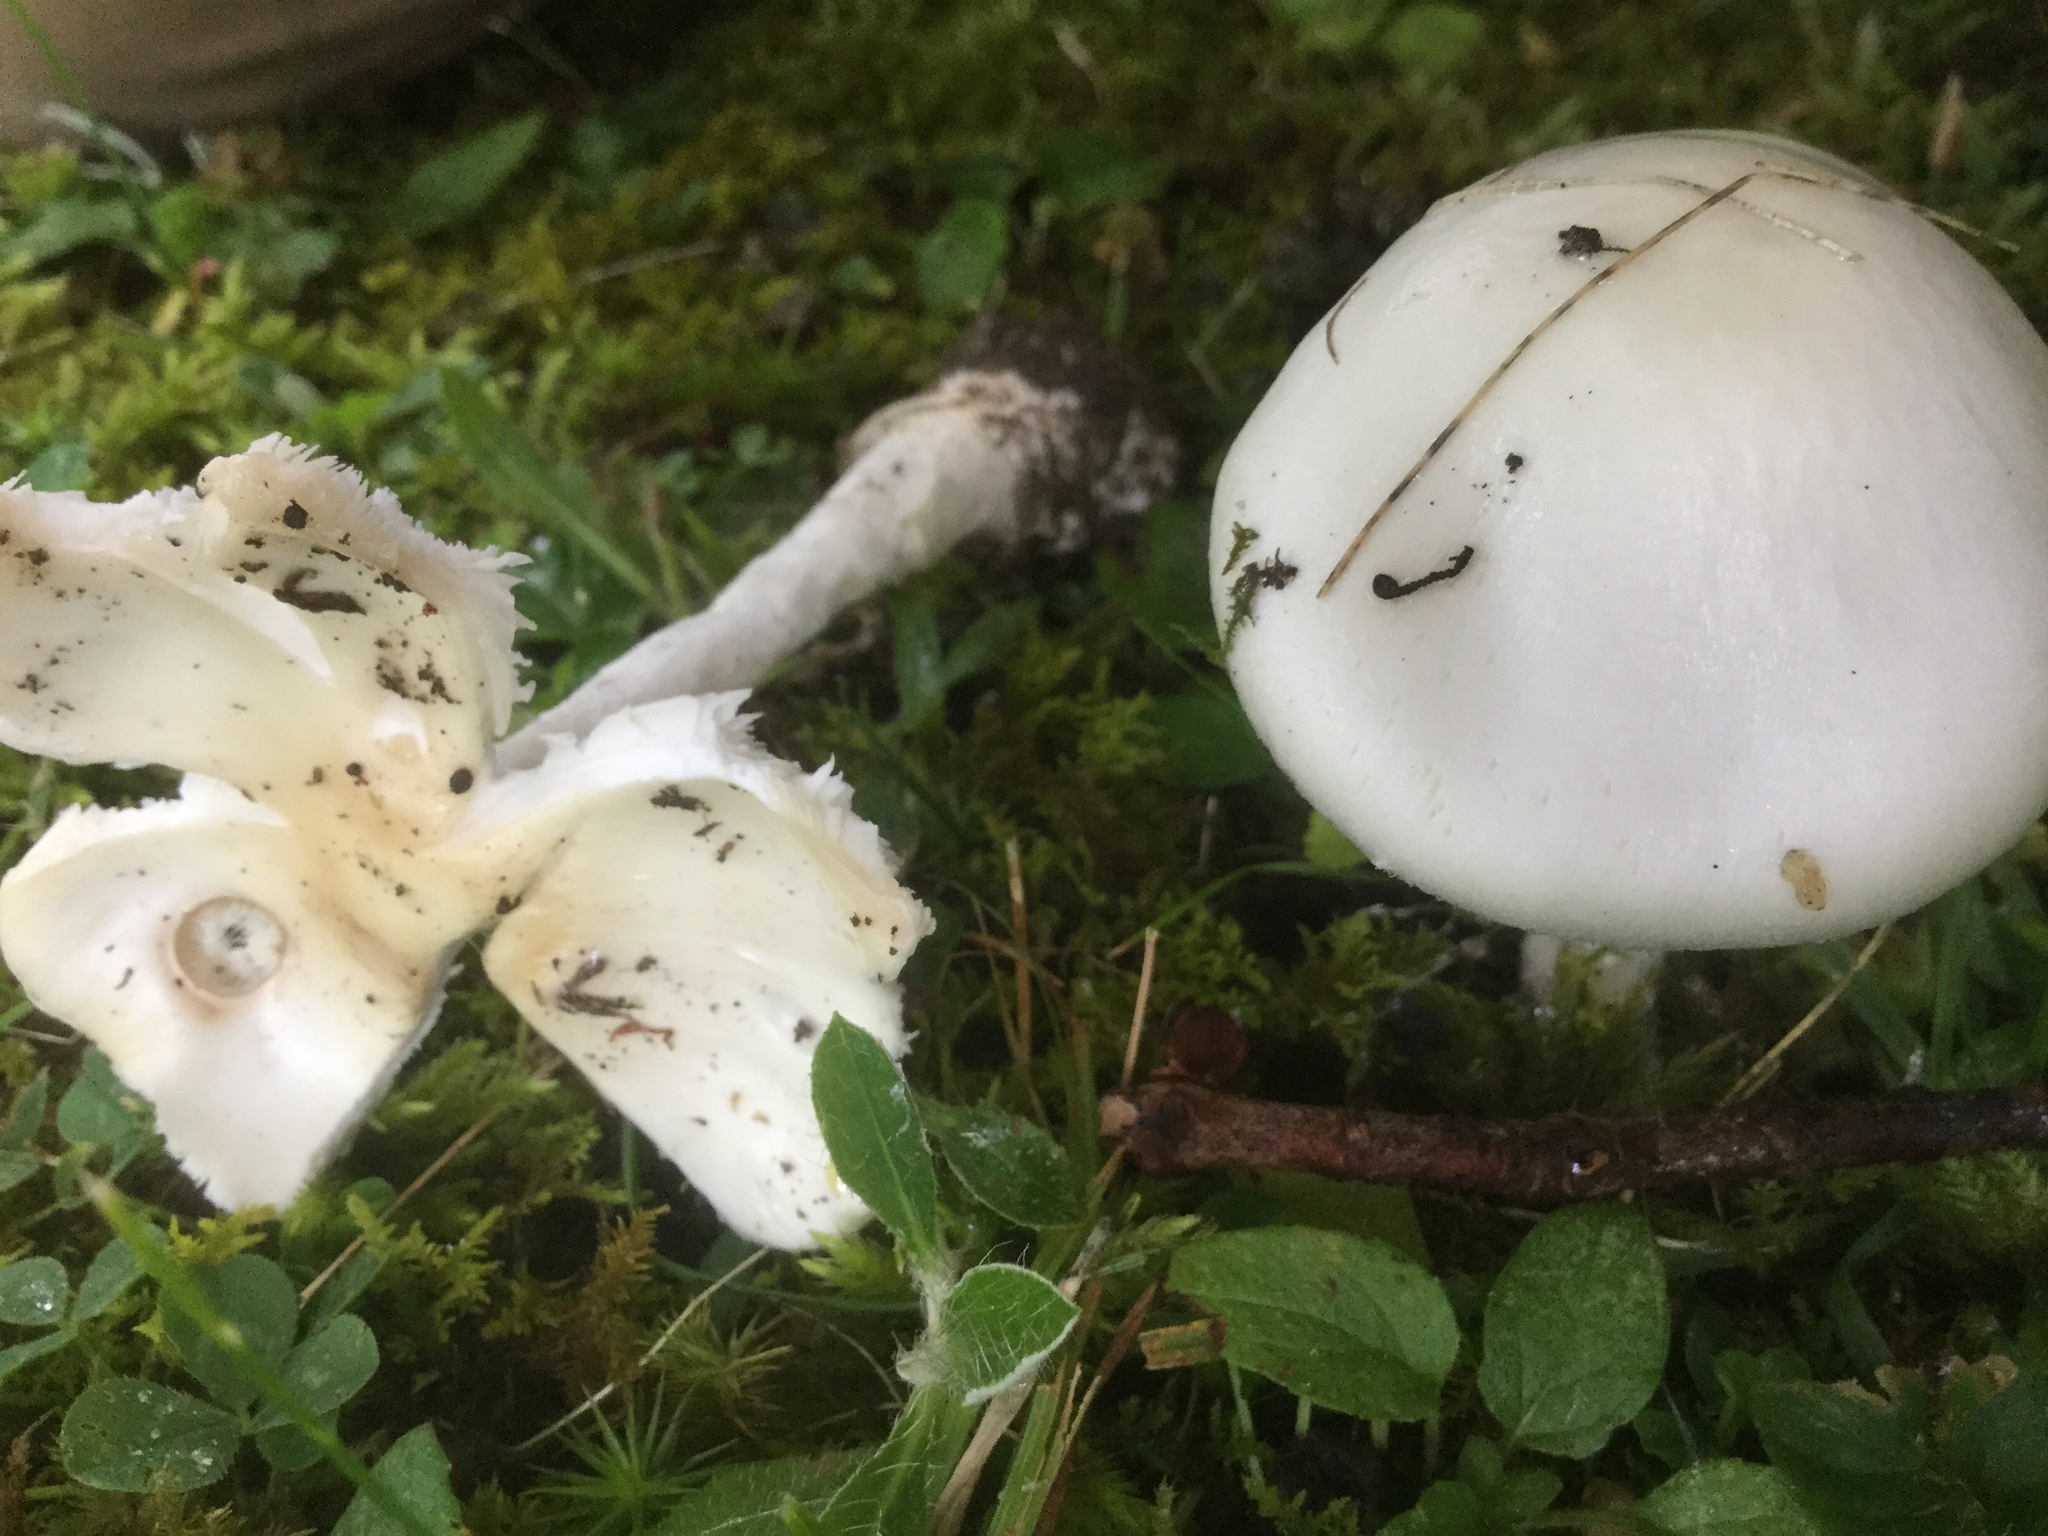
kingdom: Fungi
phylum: Basidiomycota
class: Agaricomycetes
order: Agaricales
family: Amanitaceae
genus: Amanita
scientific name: Amanita bisporigera
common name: Eastern north american destroying angel
